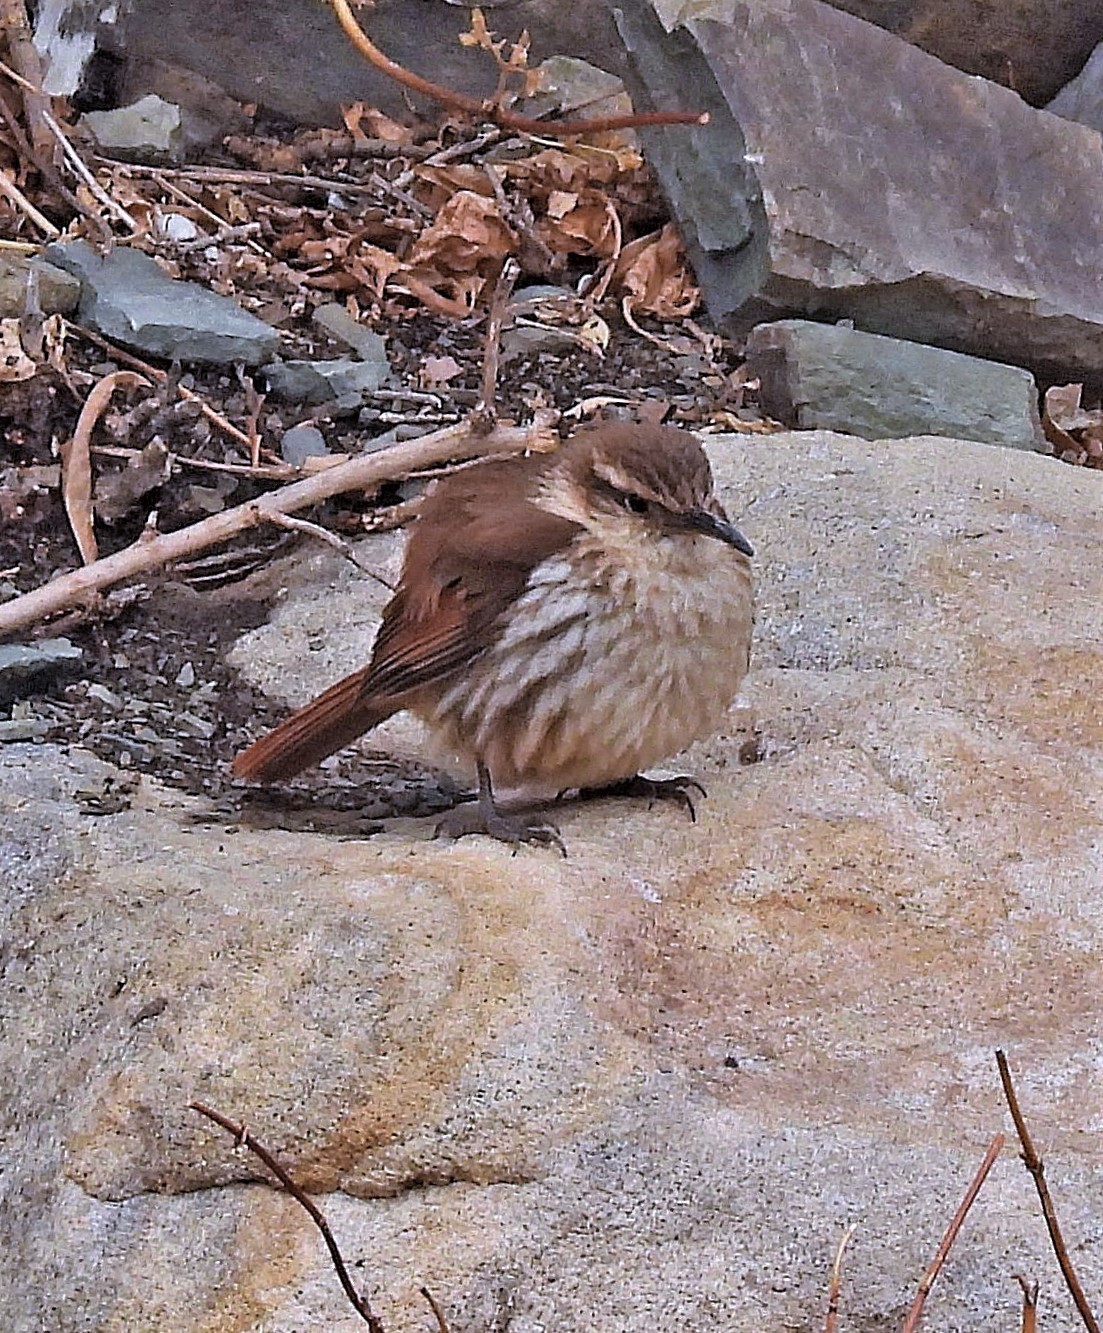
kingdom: Animalia
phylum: Chordata
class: Aves
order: Passeriformes
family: Furnariidae
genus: Upucerthia
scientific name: Upucerthia andaecola
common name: Rock earthcreeper
